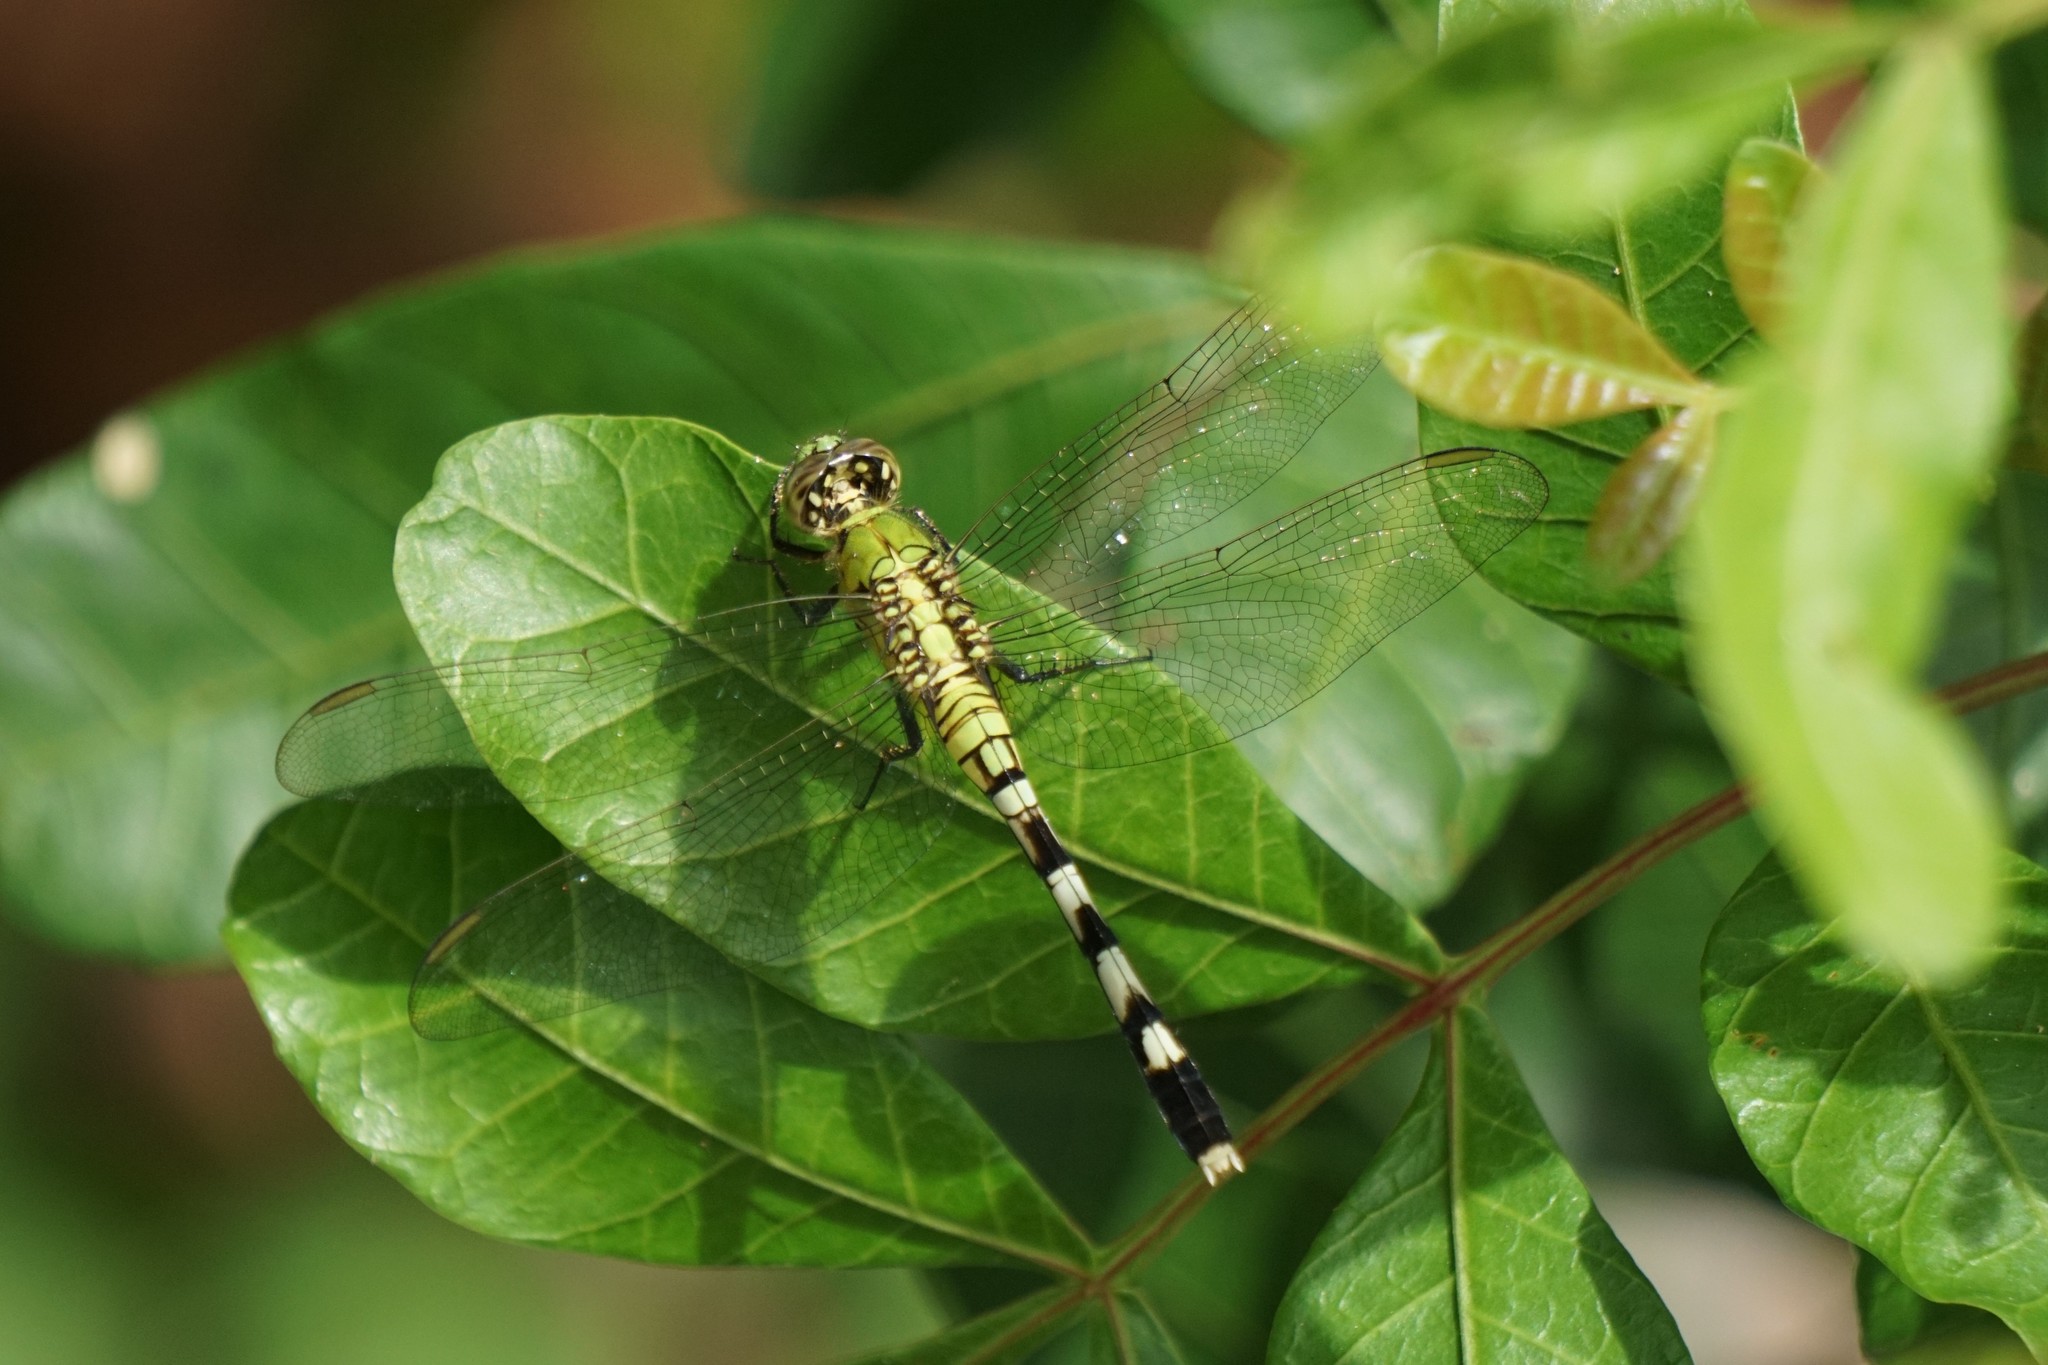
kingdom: Animalia
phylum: Arthropoda
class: Insecta
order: Odonata
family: Libellulidae
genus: Erythemis
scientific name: Erythemis simplicicollis
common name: Eastern pondhawk
